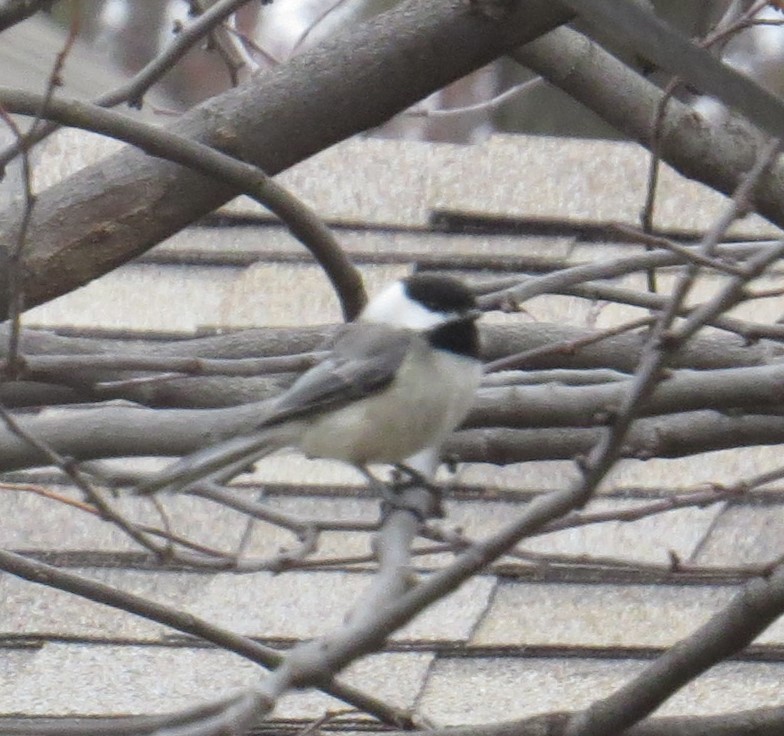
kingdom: Animalia
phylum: Chordata
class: Aves
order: Passeriformes
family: Paridae
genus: Poecile
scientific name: Poecile atricapillus
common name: Black-capped chickadee
